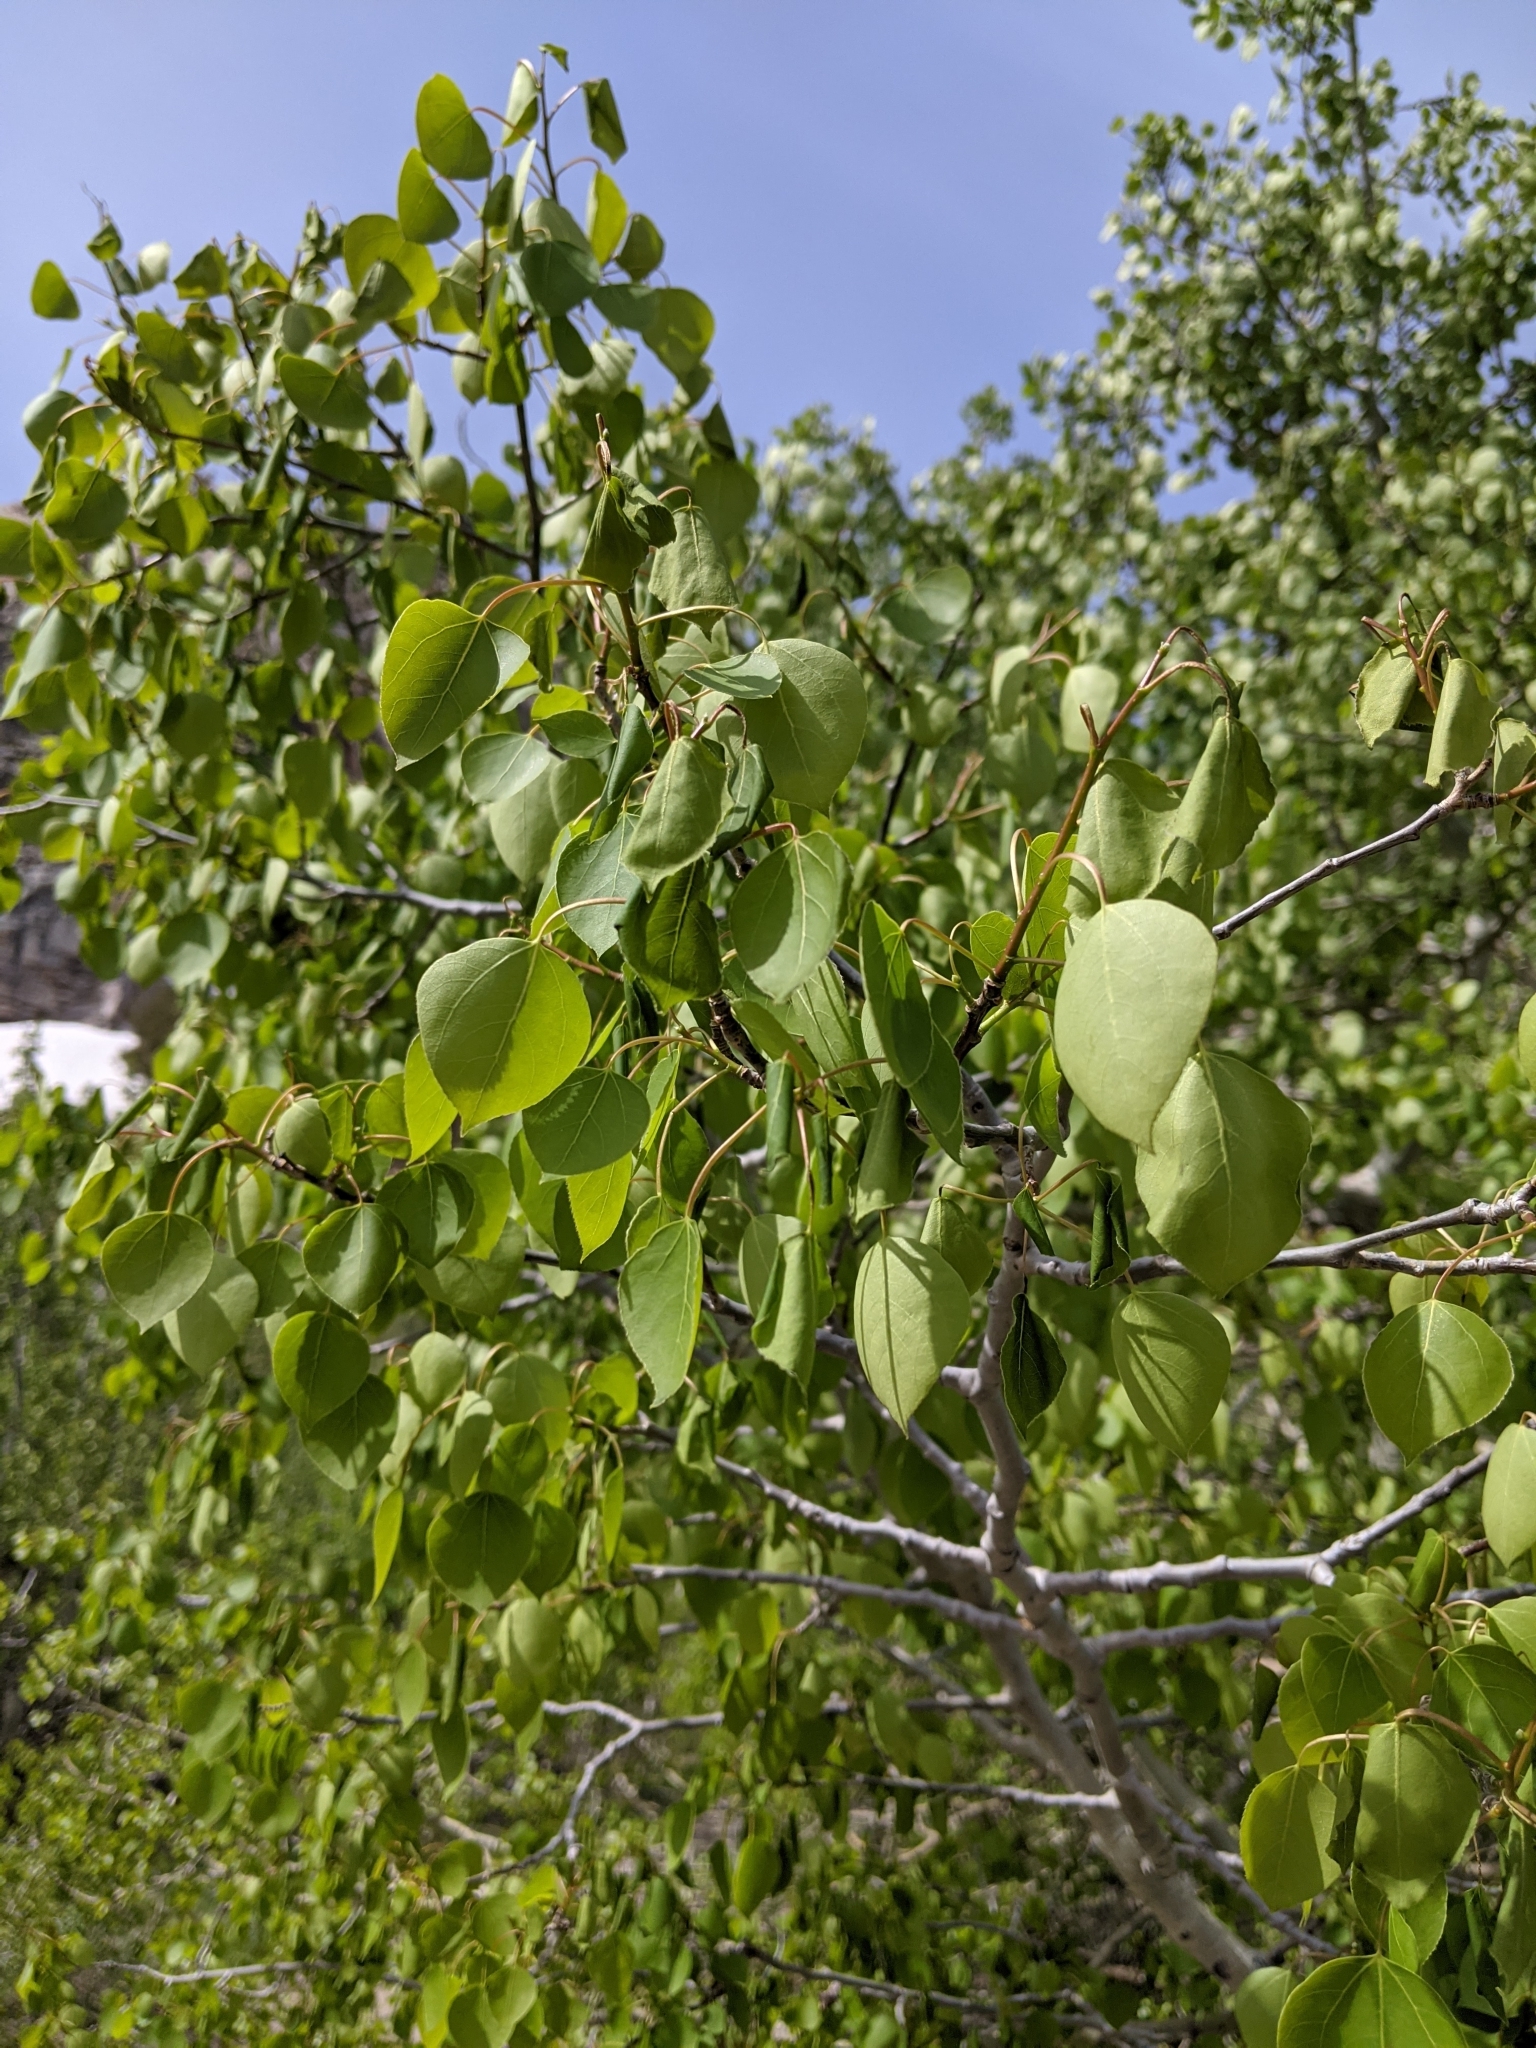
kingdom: Plantae
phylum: Tracheophyta
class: Magnoliopsida
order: Malpighiales
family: Salicaceae
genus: Populus
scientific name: Populus tremuloides
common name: Quaking aspen
